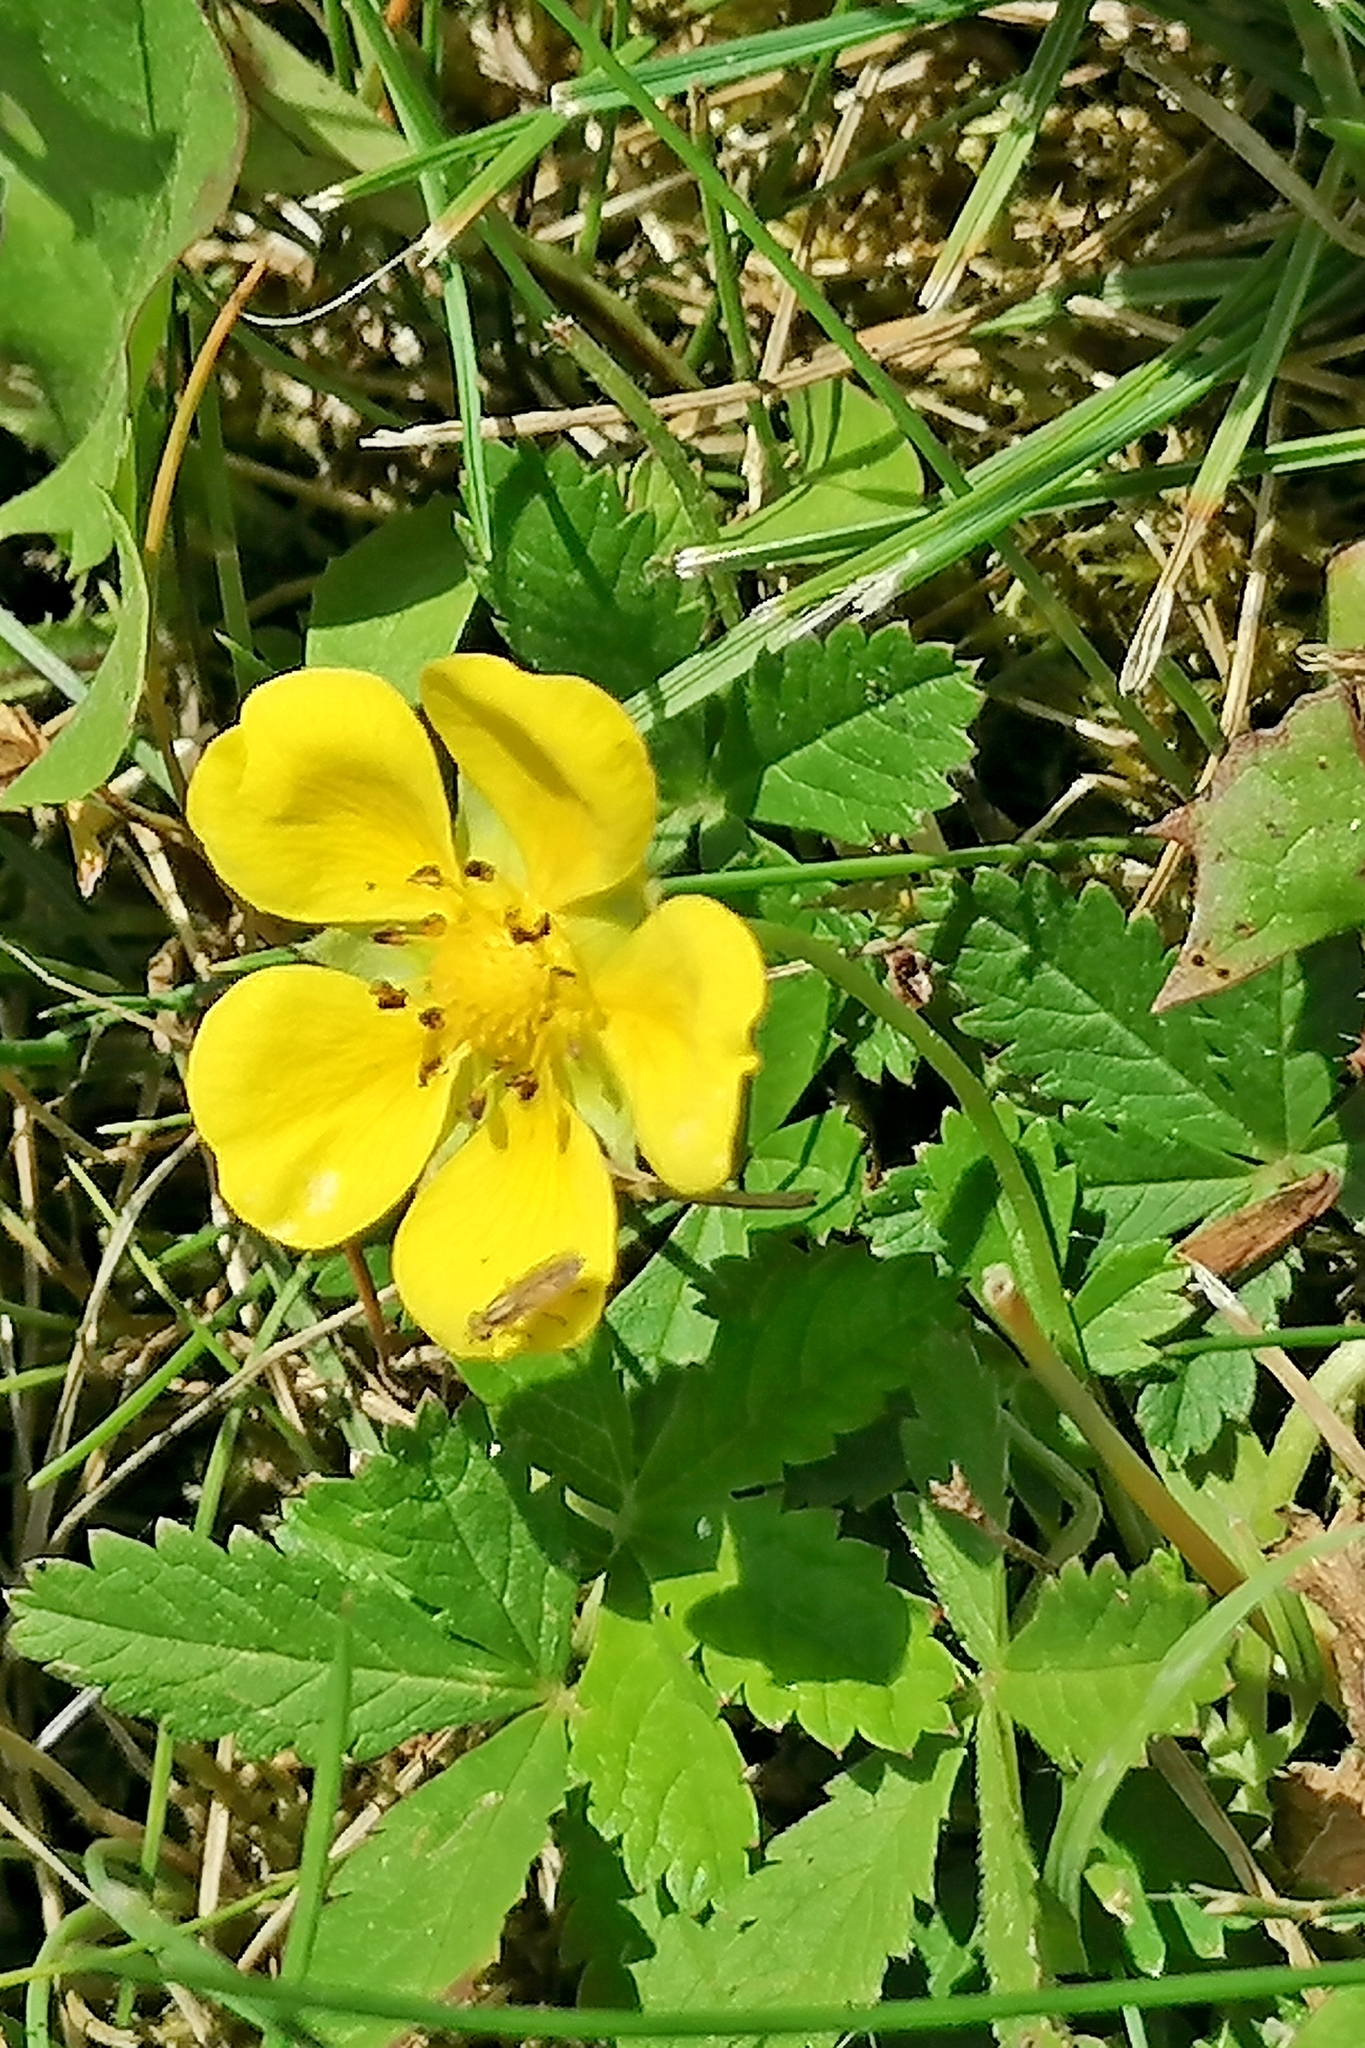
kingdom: Plantae
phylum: Tracheophyta
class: Magnoliopsida
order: Rosales
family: Rosaceae
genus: Potentilla
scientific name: Potentilla reptans
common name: Creeping cinquefoil
